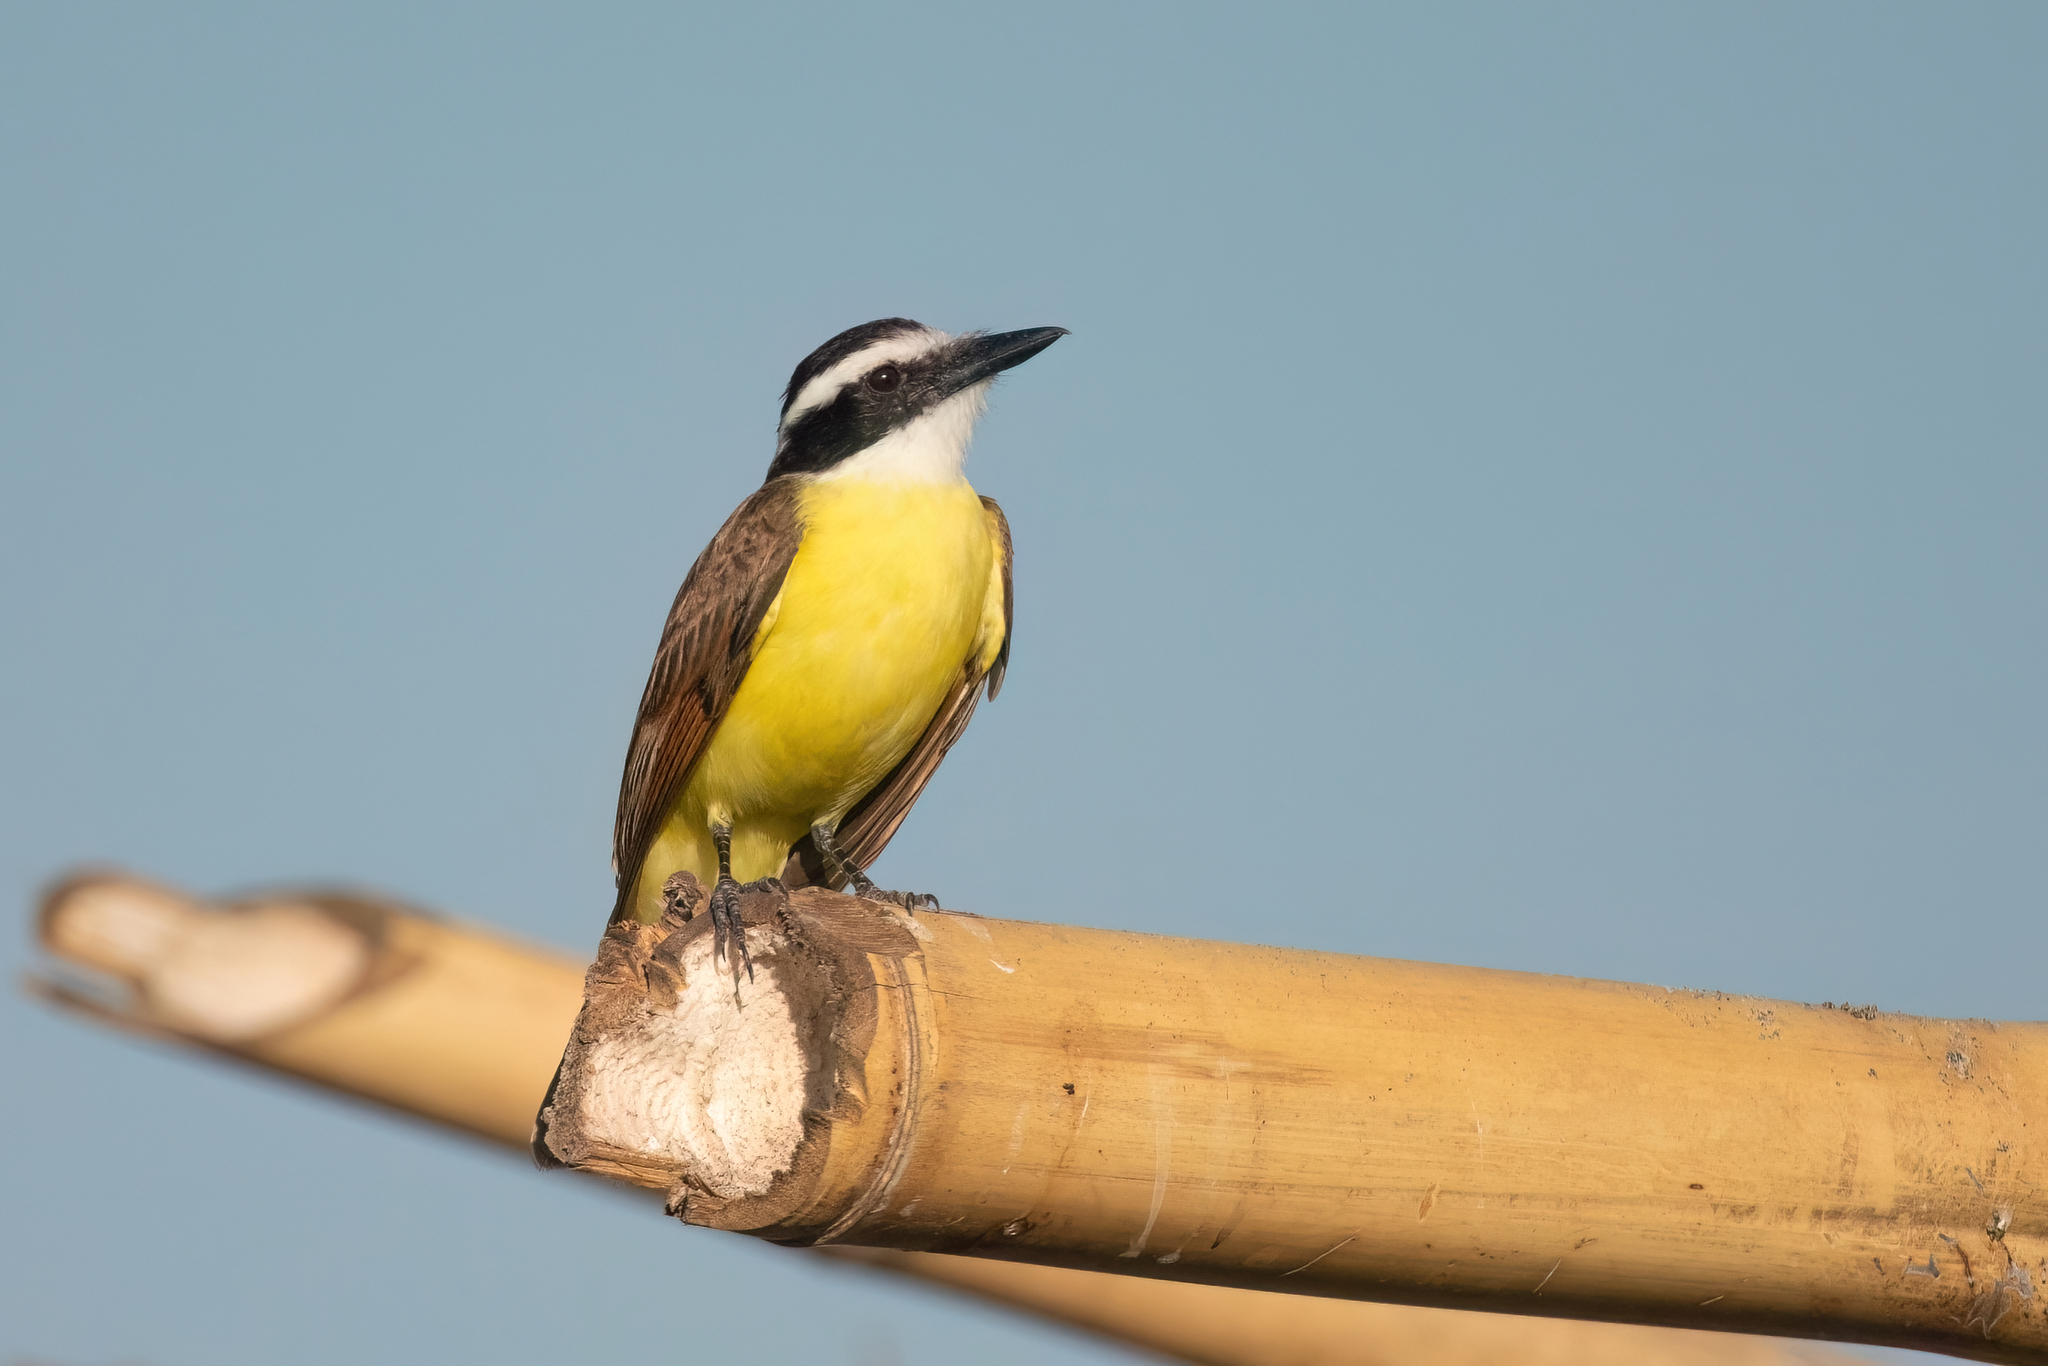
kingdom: Animalia
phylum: Chordata
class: Aves
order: Passeriformes
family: Tyrannidae
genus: Pitangus
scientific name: Pitangus sulphuratus
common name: Great kiskadee
